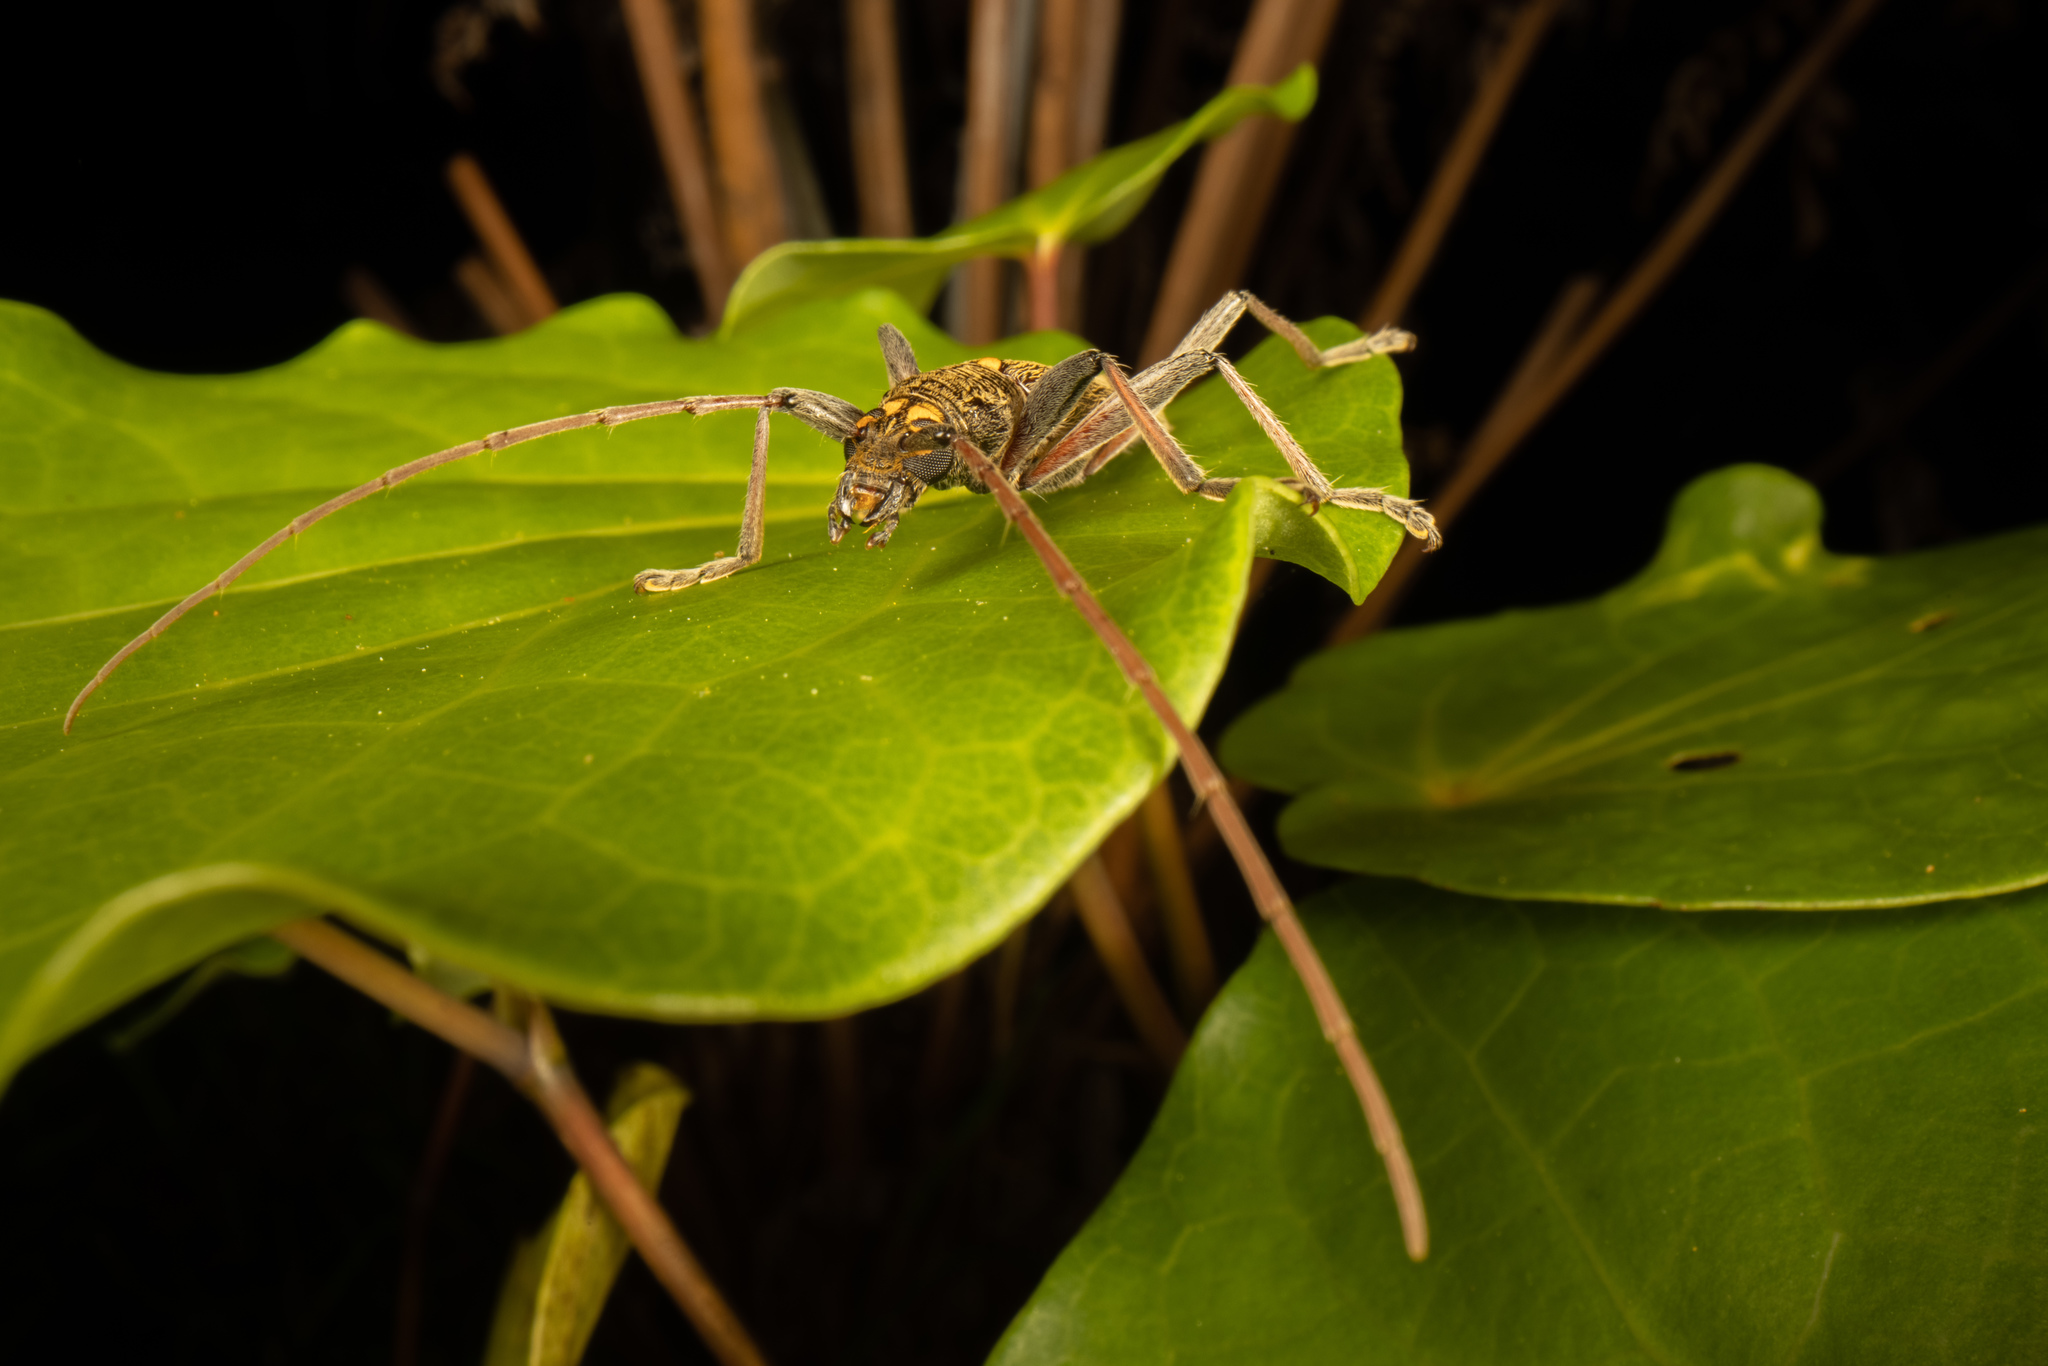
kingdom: Animalia
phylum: Arthropoda
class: Insecta
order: Coleoptera
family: Cerambycidae
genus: Oemona
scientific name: Oemona hirta
